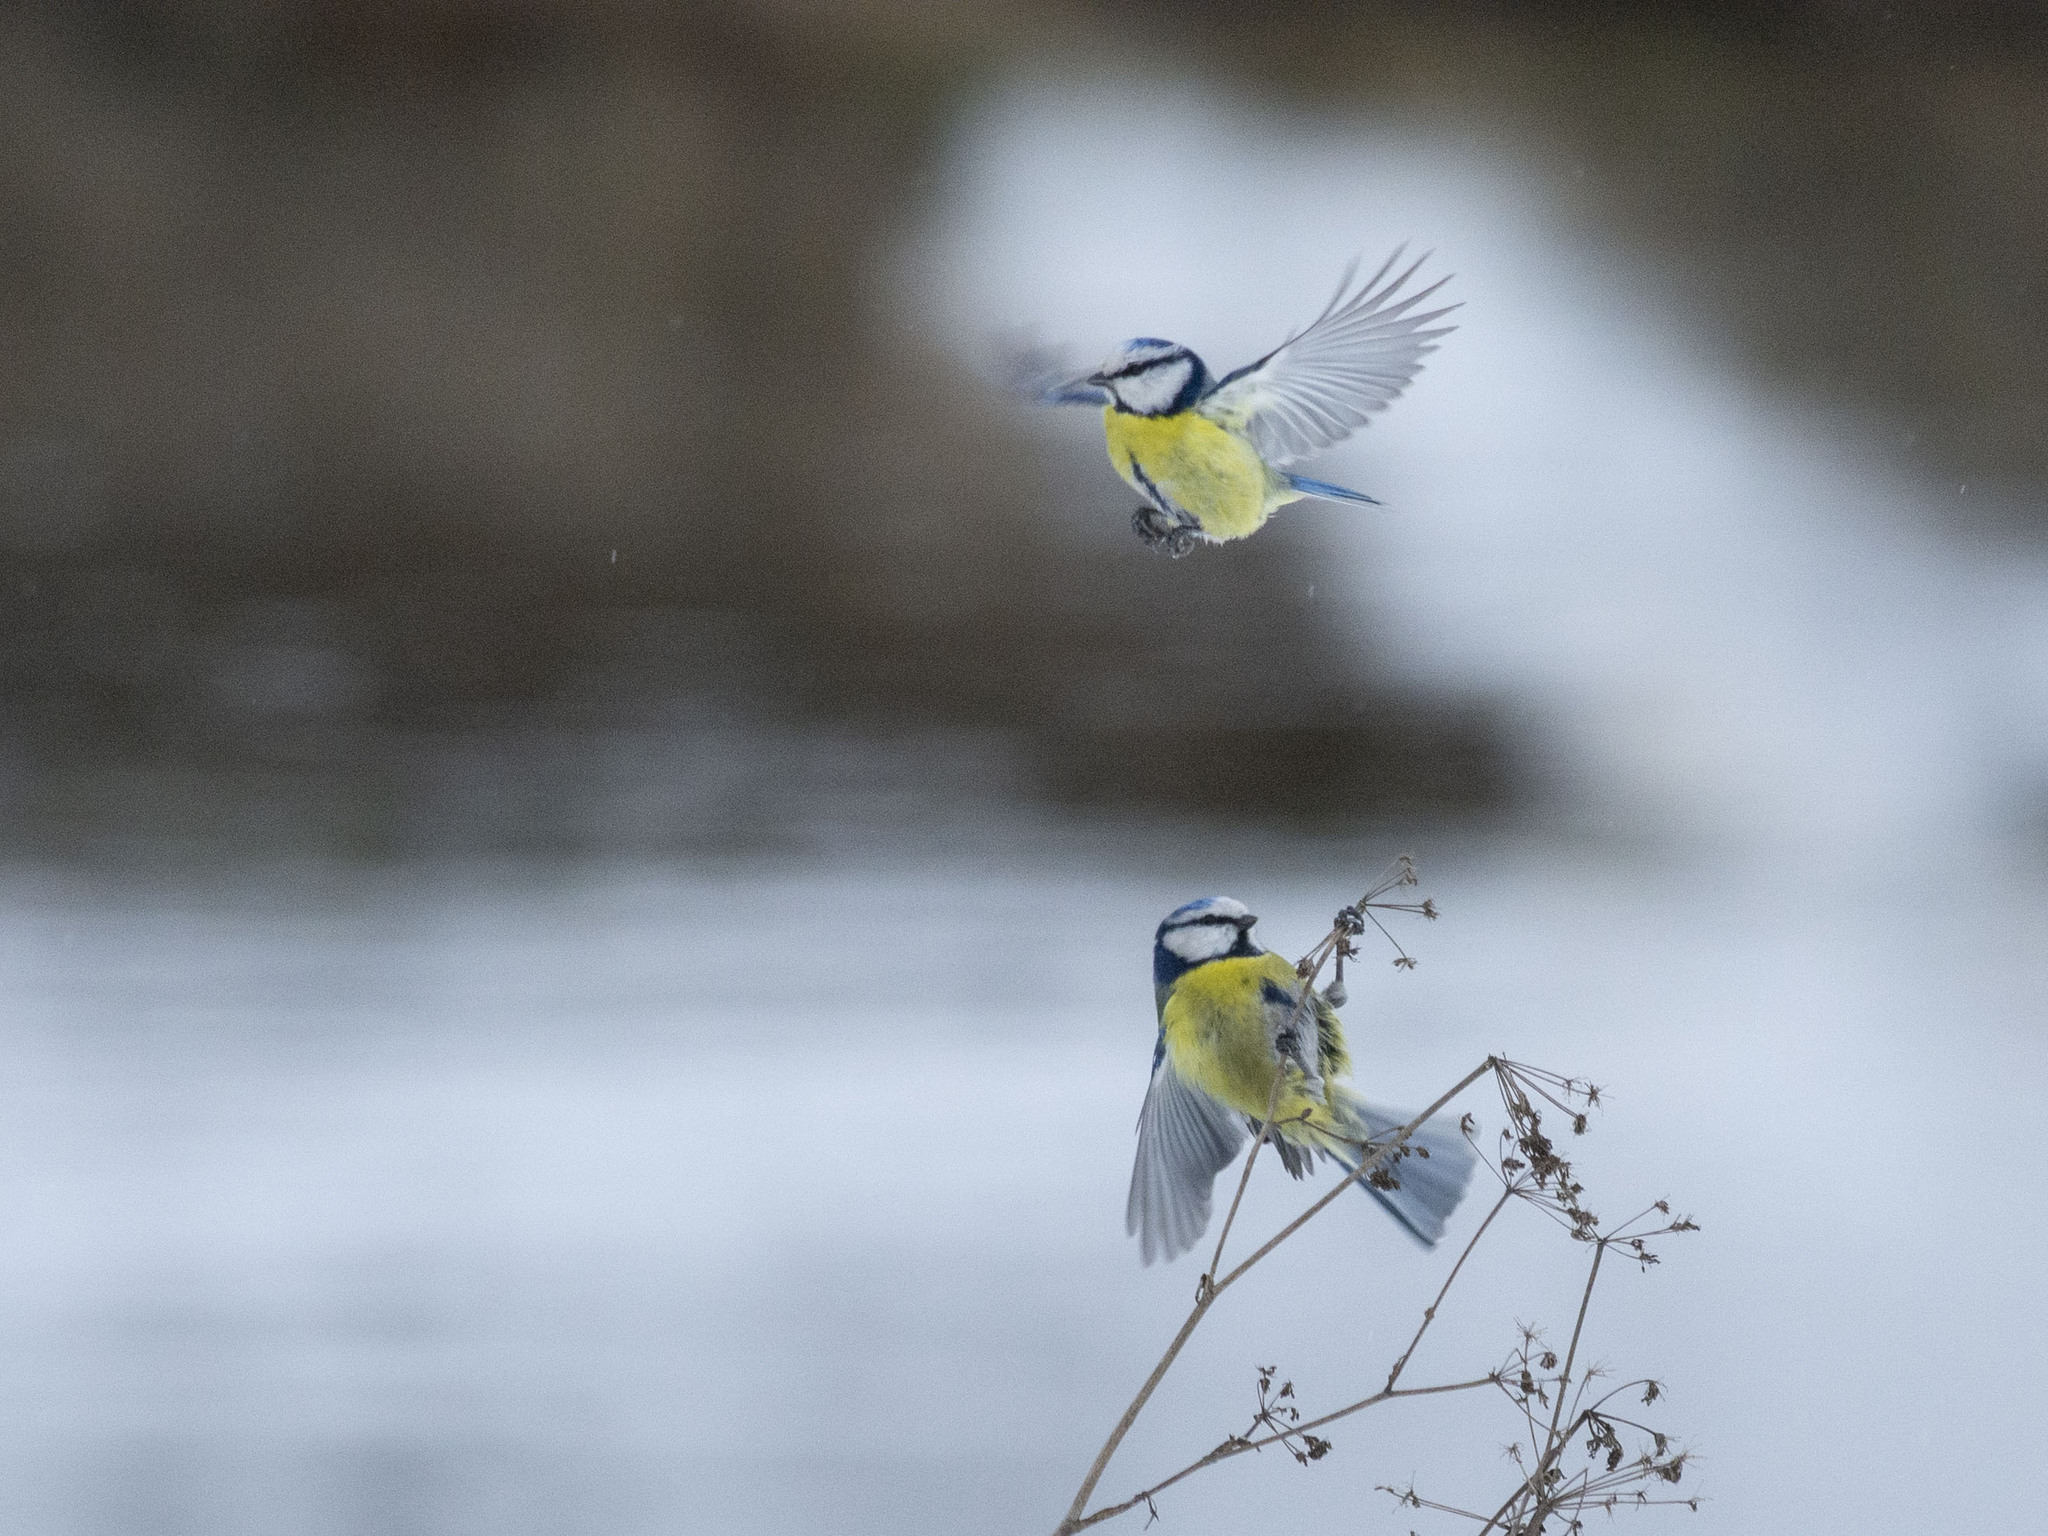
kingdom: Animalia
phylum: Chordata
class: Aves
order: Passeriformes
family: Paridae
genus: Cyanistes
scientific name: Cyanistes caeruleus
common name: Eurasian blue tit
